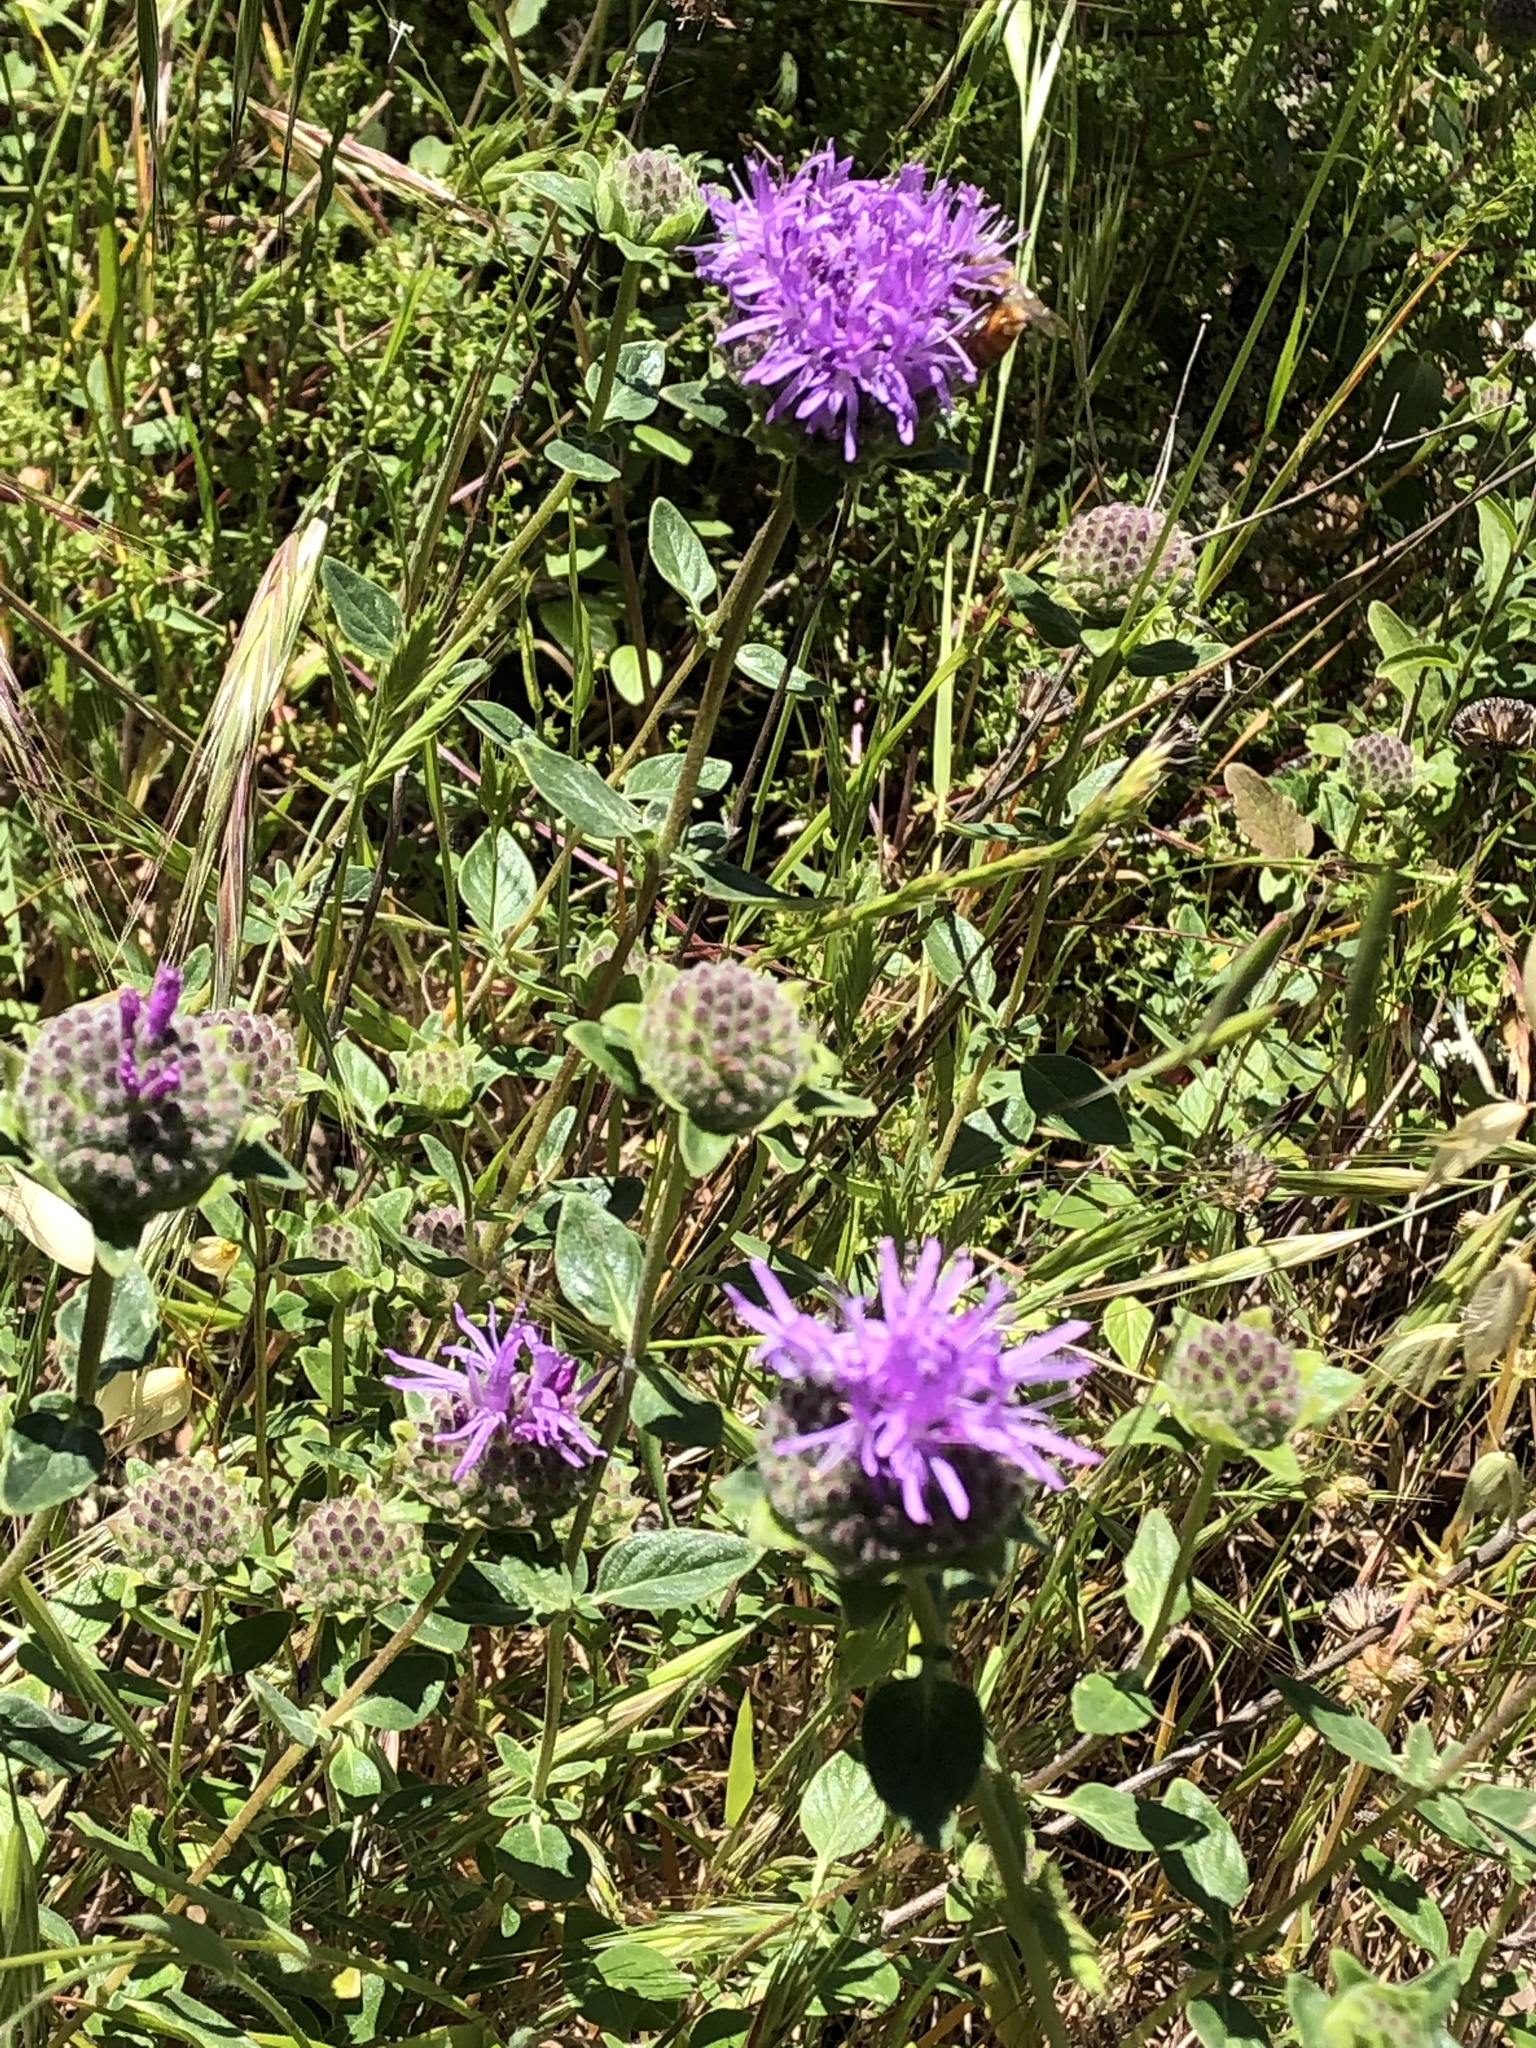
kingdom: Plantae
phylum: Tracheophyta
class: Magnoliopsida
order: Lamiales
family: Lamiaceae
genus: Monardella
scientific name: Monardella odoratissima
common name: Pacific monardella
